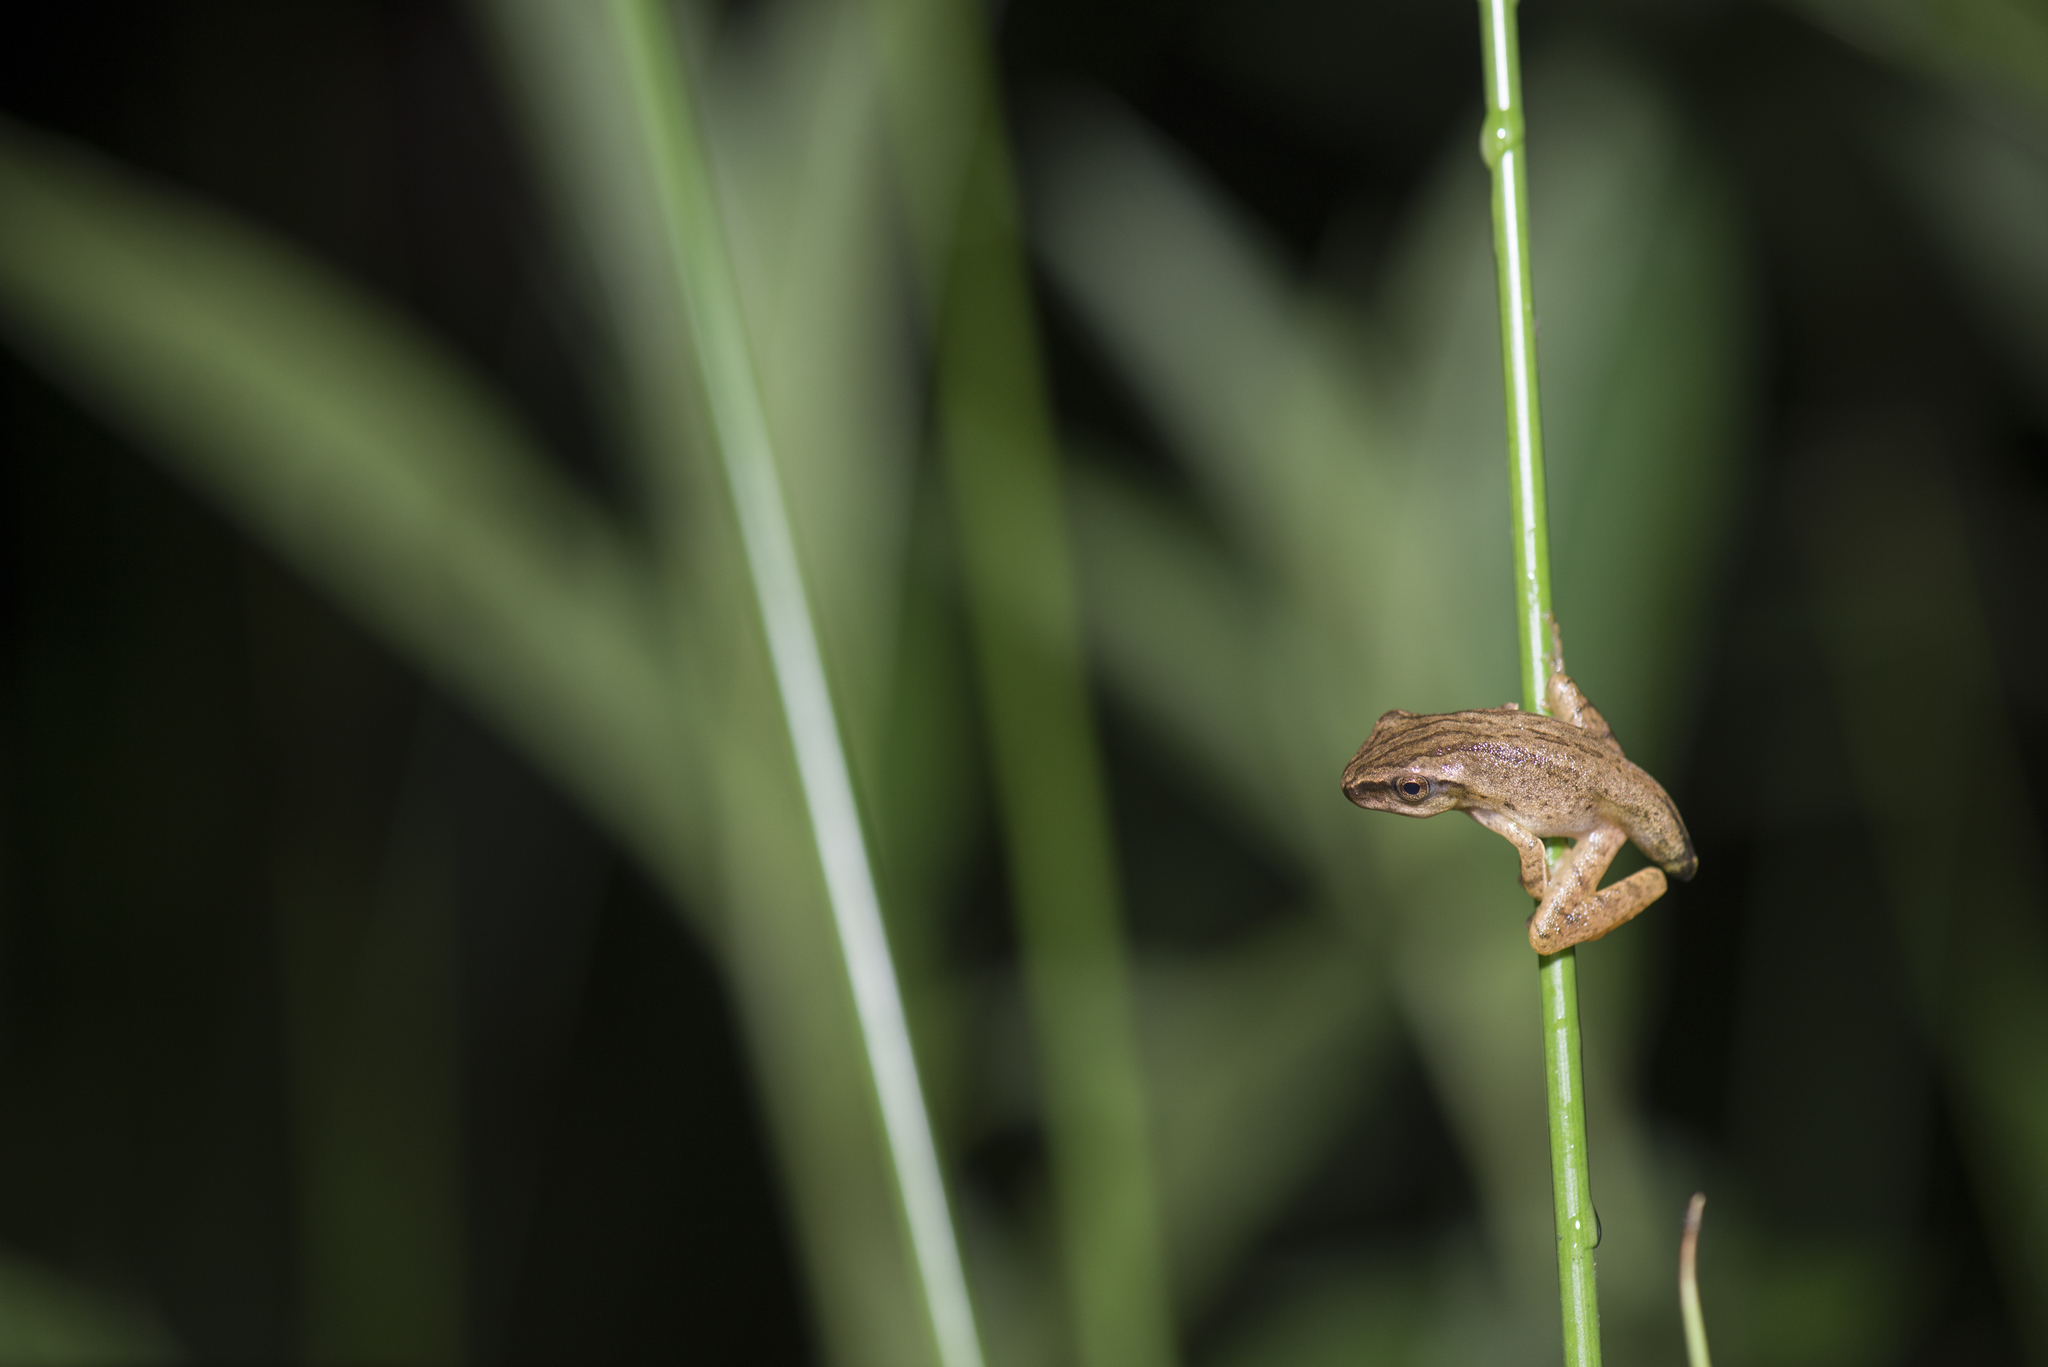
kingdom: Animalia
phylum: Chordata
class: Amphibia
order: Anura
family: Rhacophoridae
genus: Polypedates
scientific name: Polypedates braueri
